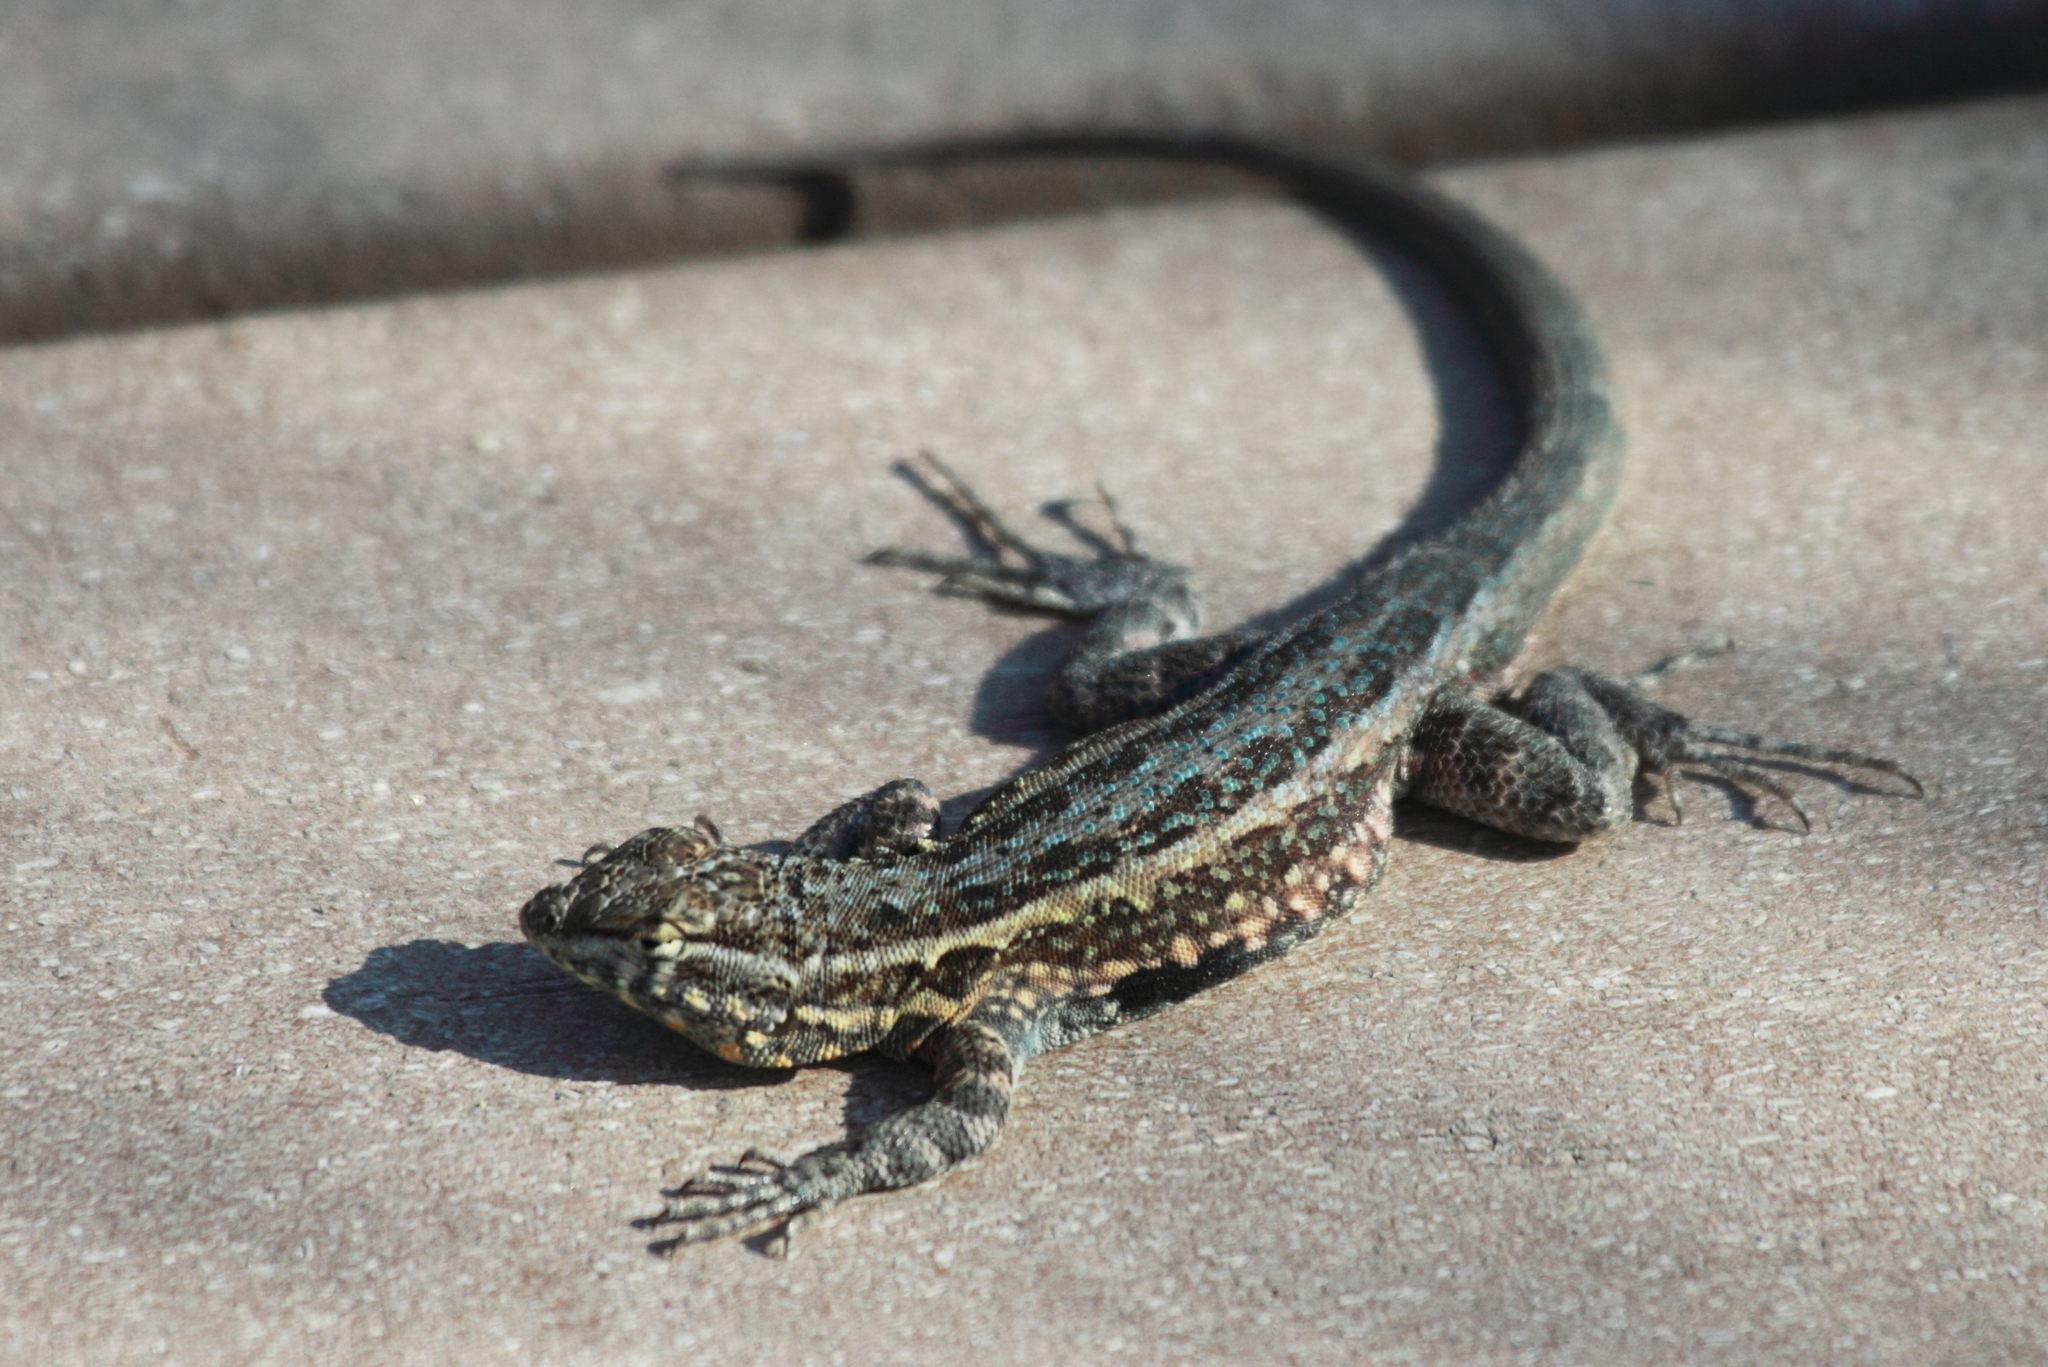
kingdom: Animalia
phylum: Chordata
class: Squamata
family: Phrynosomatidae
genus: Uta
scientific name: Uta stansburiana
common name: Side-blotched lizard
